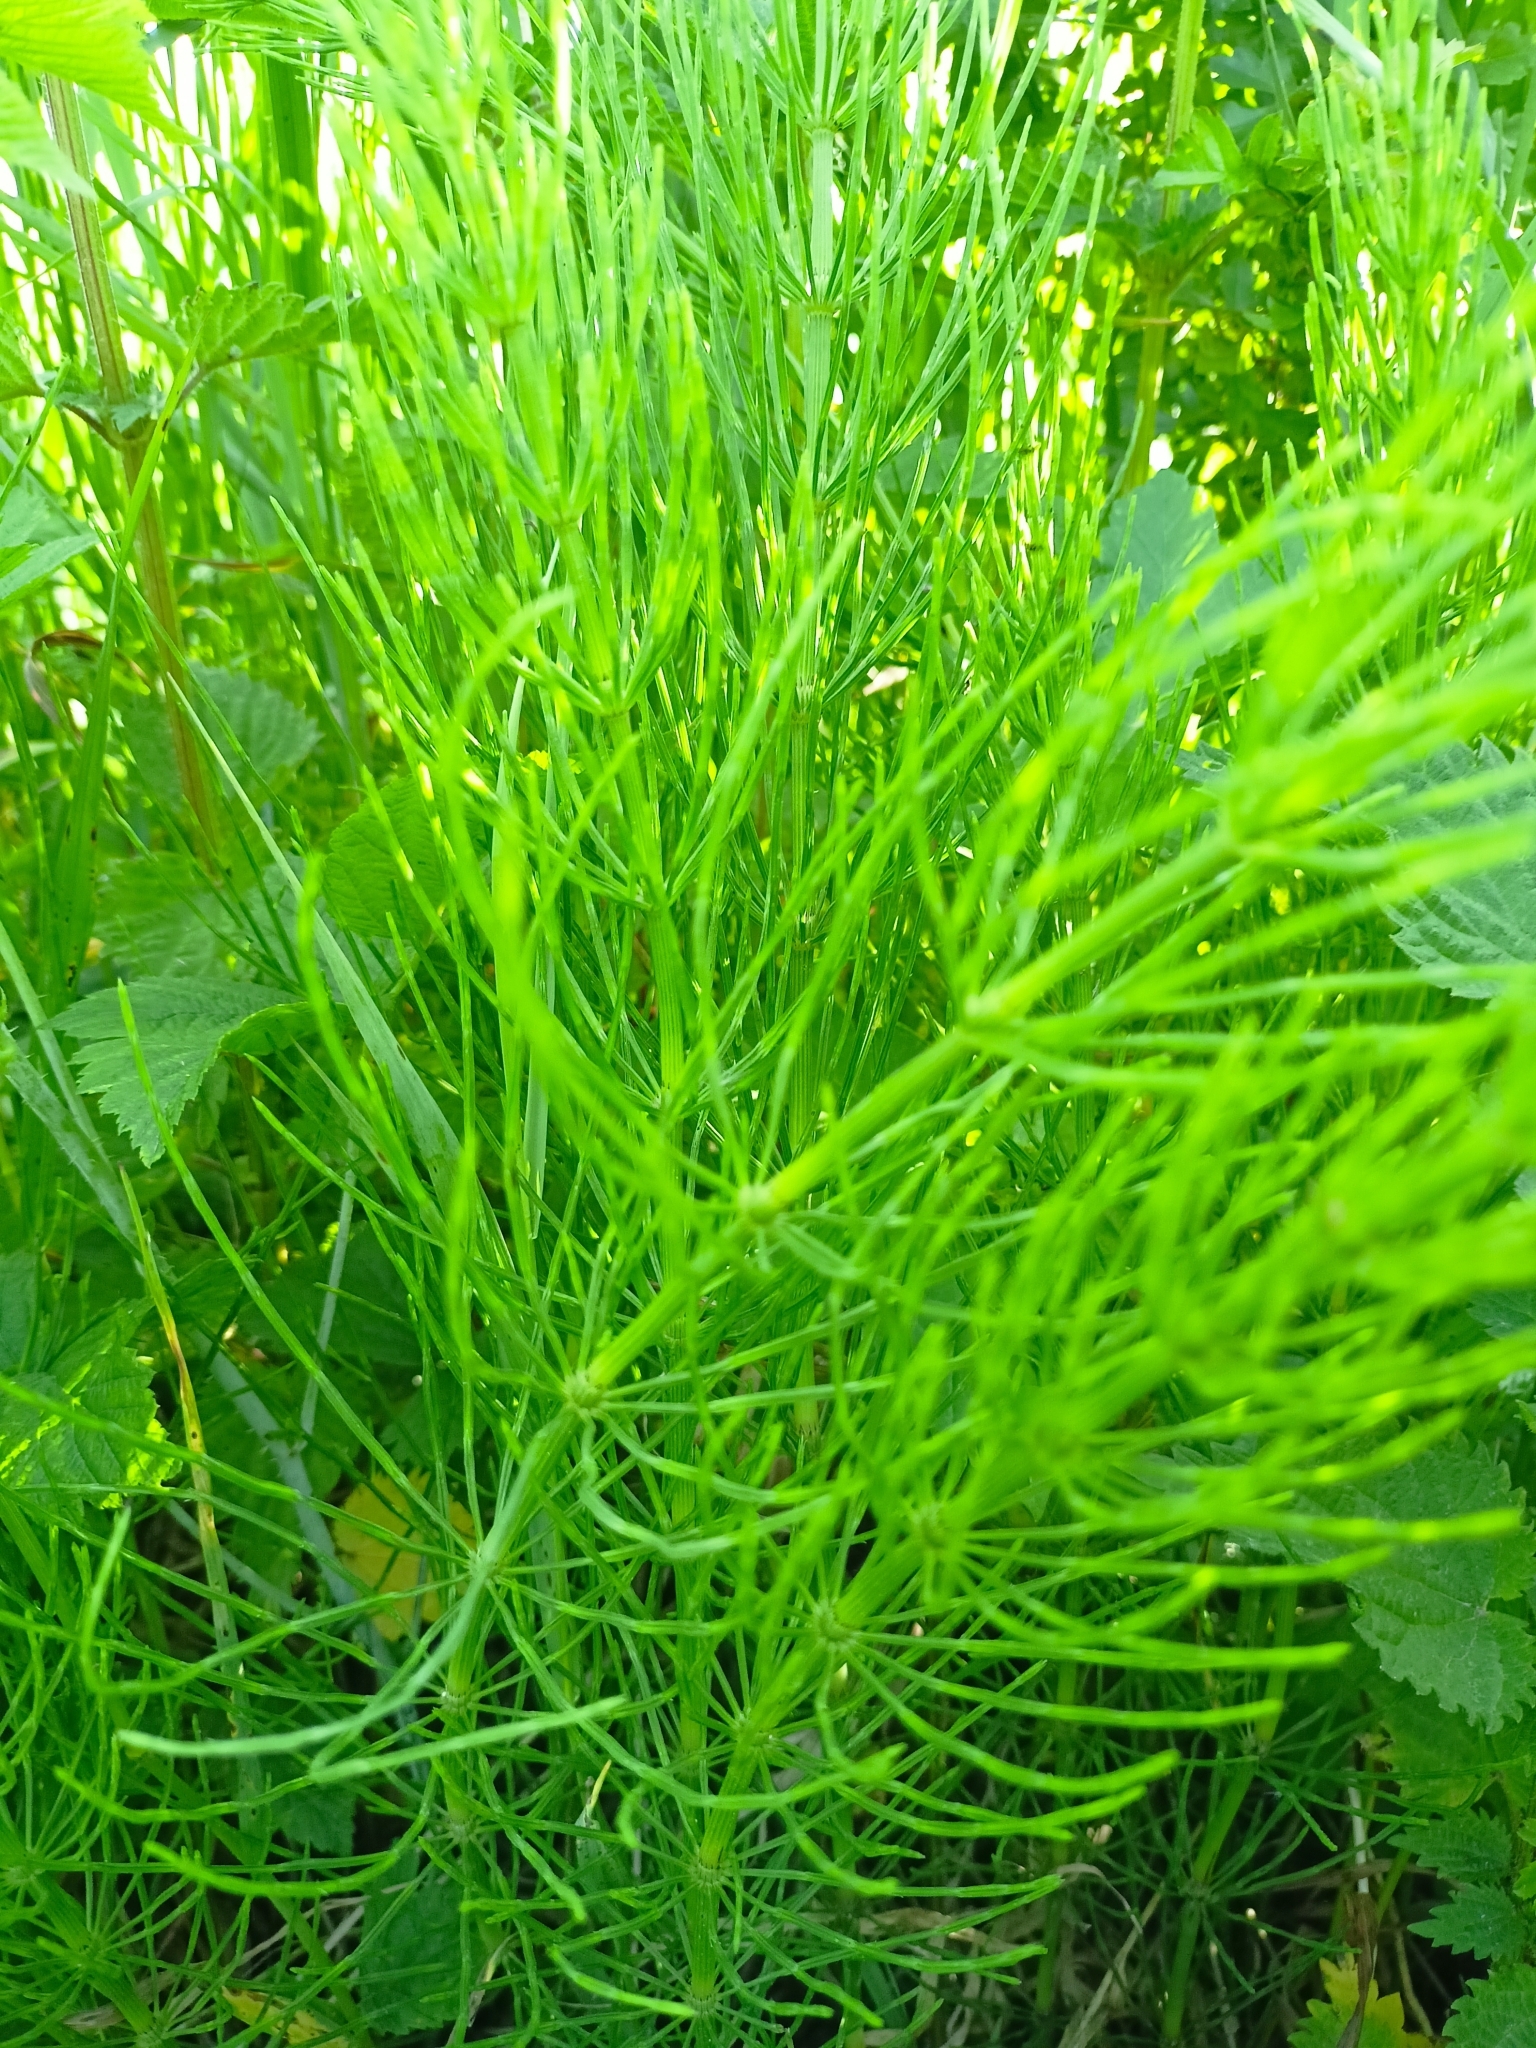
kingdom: Plantae
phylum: Tracheophyta
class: Polypodiopsida
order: Equisetales
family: Equisetaceae
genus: Equisetum
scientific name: Equisetum arvense
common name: Field horsetail
